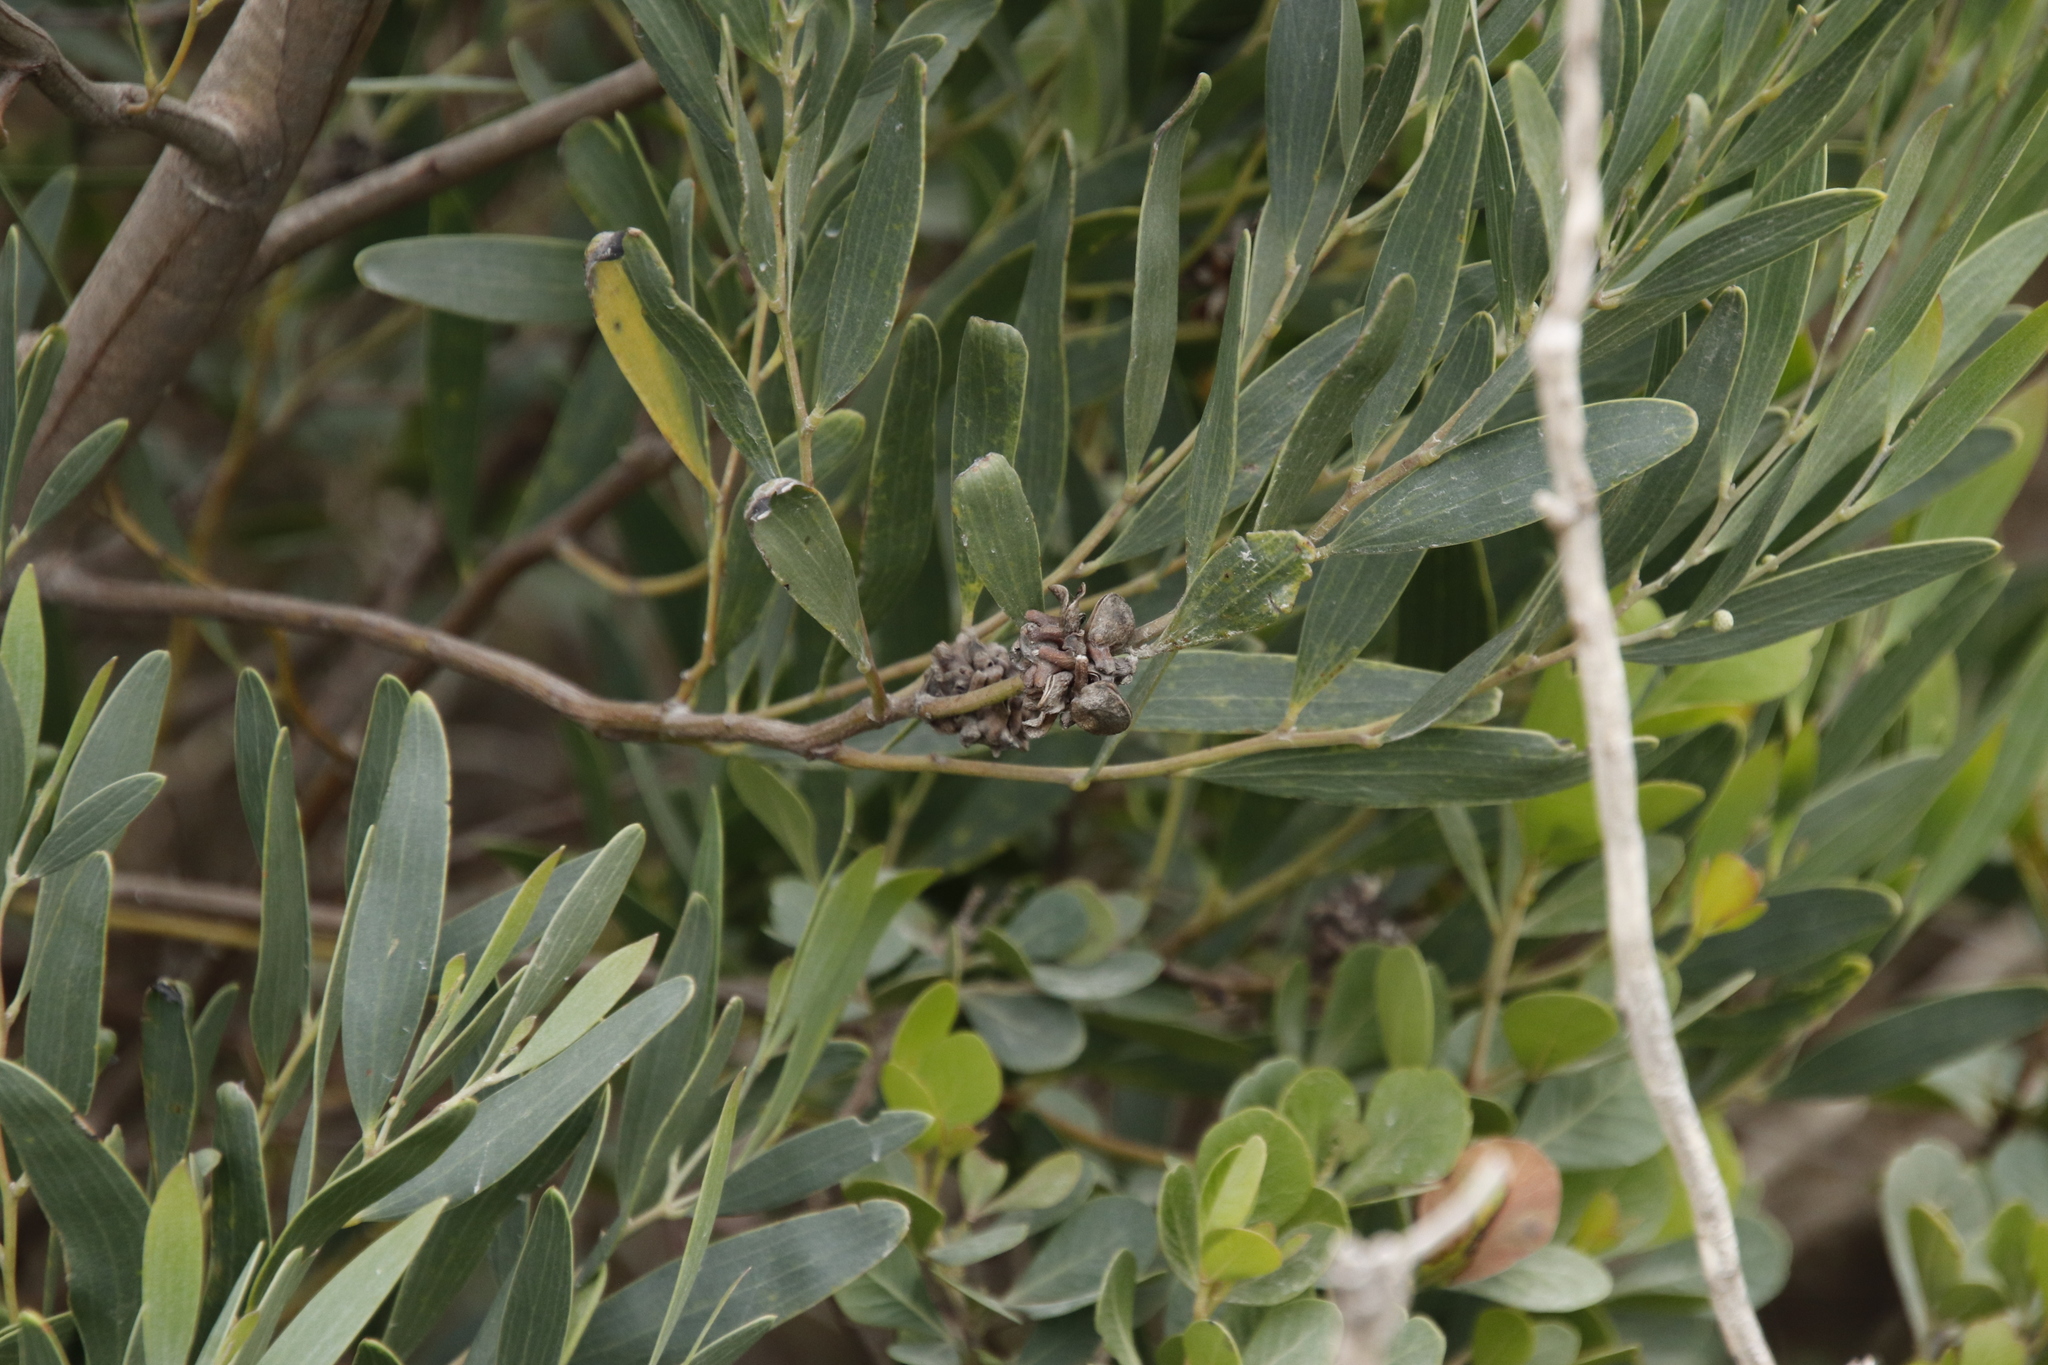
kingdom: Plantae
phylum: Tracheophyta
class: Magnoliopsida
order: Fabales
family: Fabaceae
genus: Acacia
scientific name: Acacia cyclops
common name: Coastal wattle
